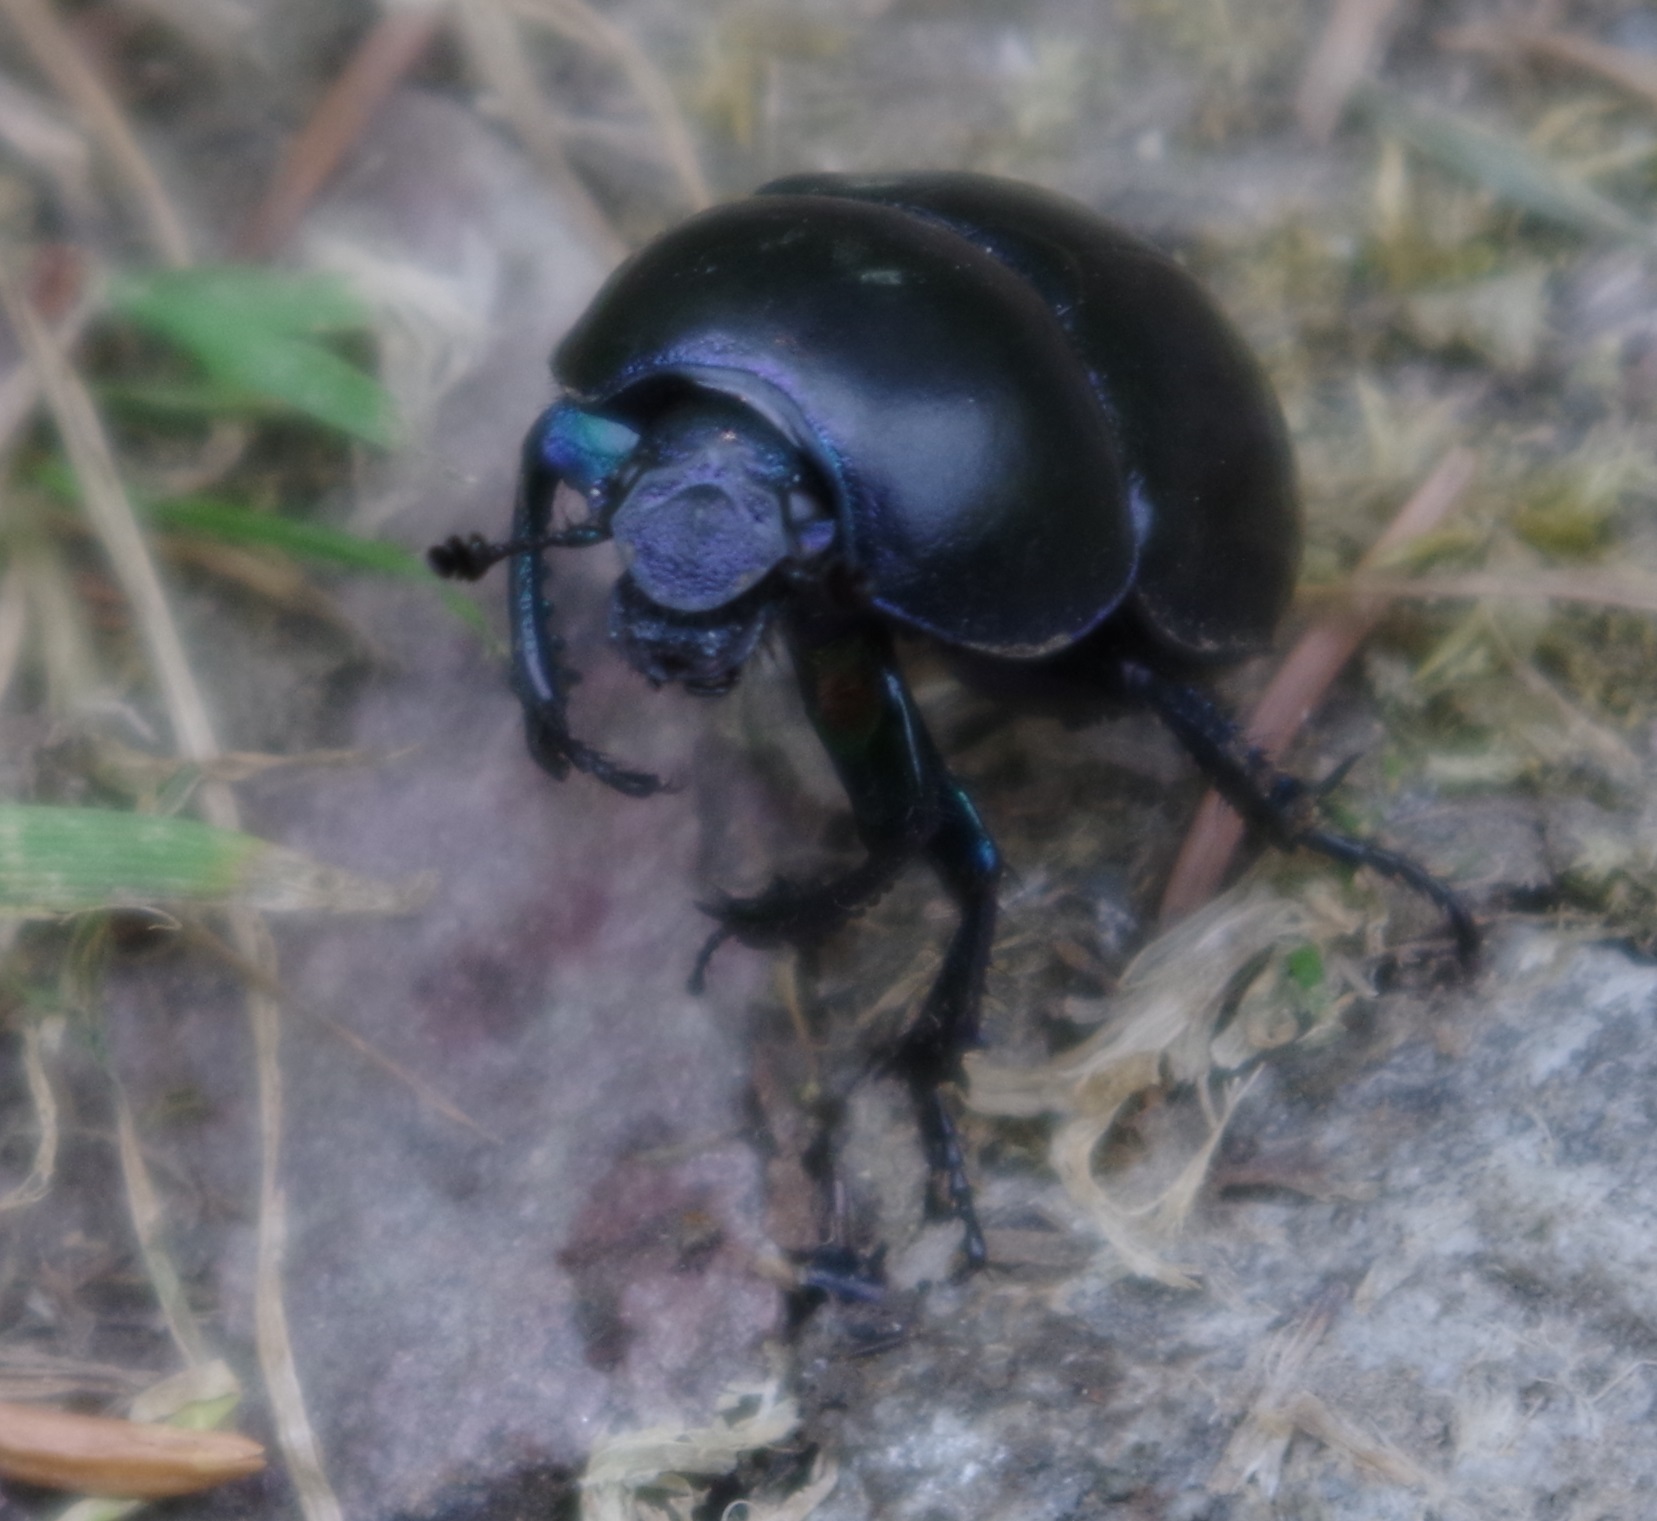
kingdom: Animalia
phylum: Arthropoda
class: Insecta
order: Coleoptera
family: Geotrupidae
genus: Trypocopris
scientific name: Trypocopris vernalis
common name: Spring dumbledor
